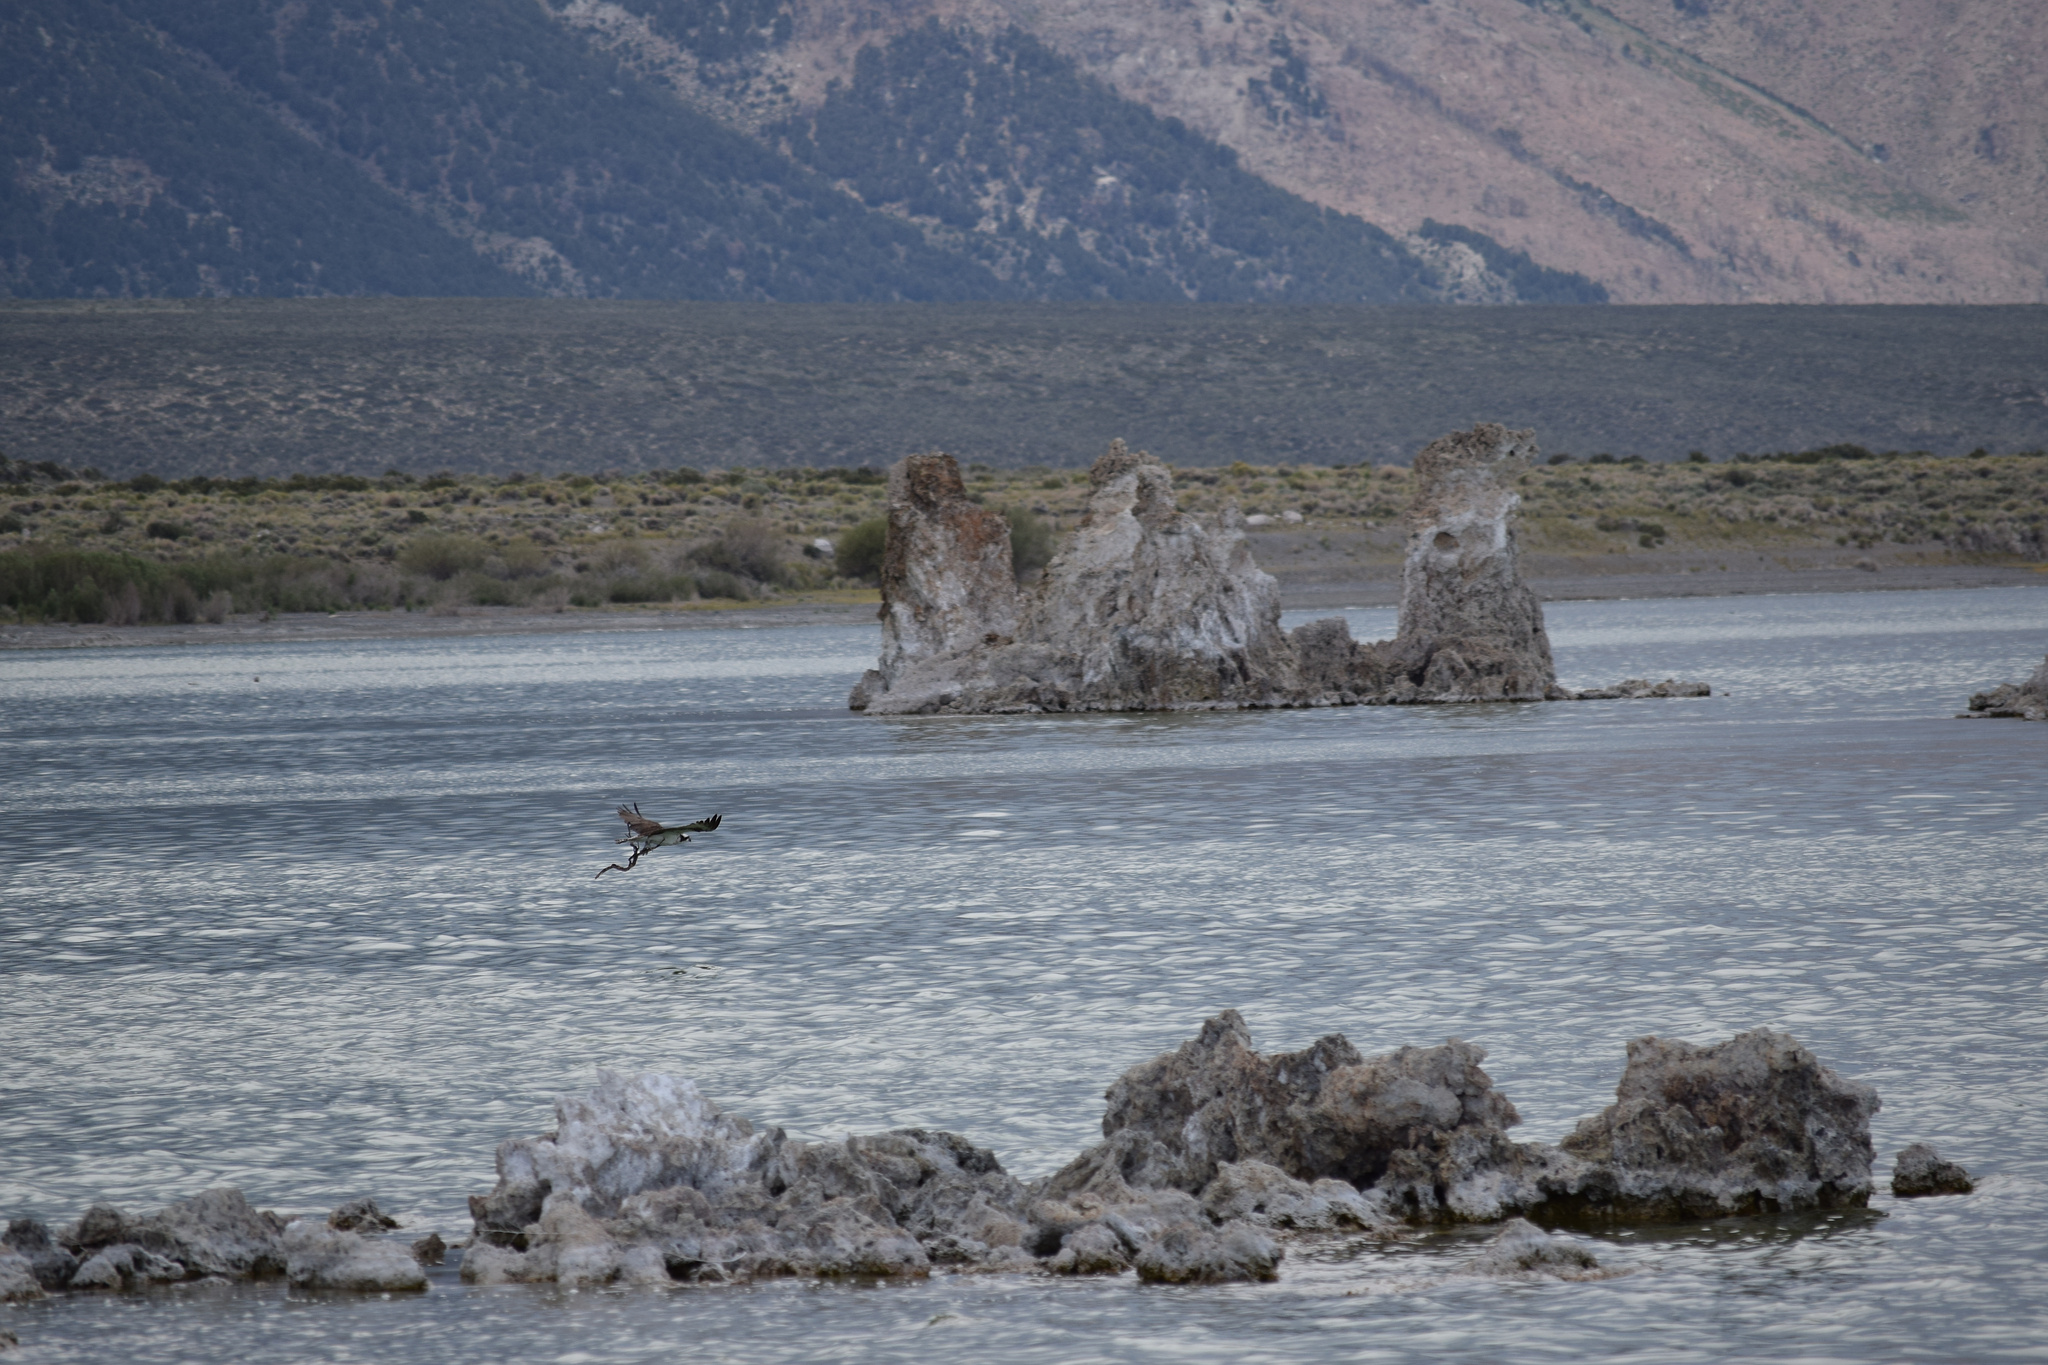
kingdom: Animalia
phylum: Chordata
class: Aves
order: Accipitriformes
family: Pandionidae
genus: Pandion
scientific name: Pandion haliaetus
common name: Osprey
